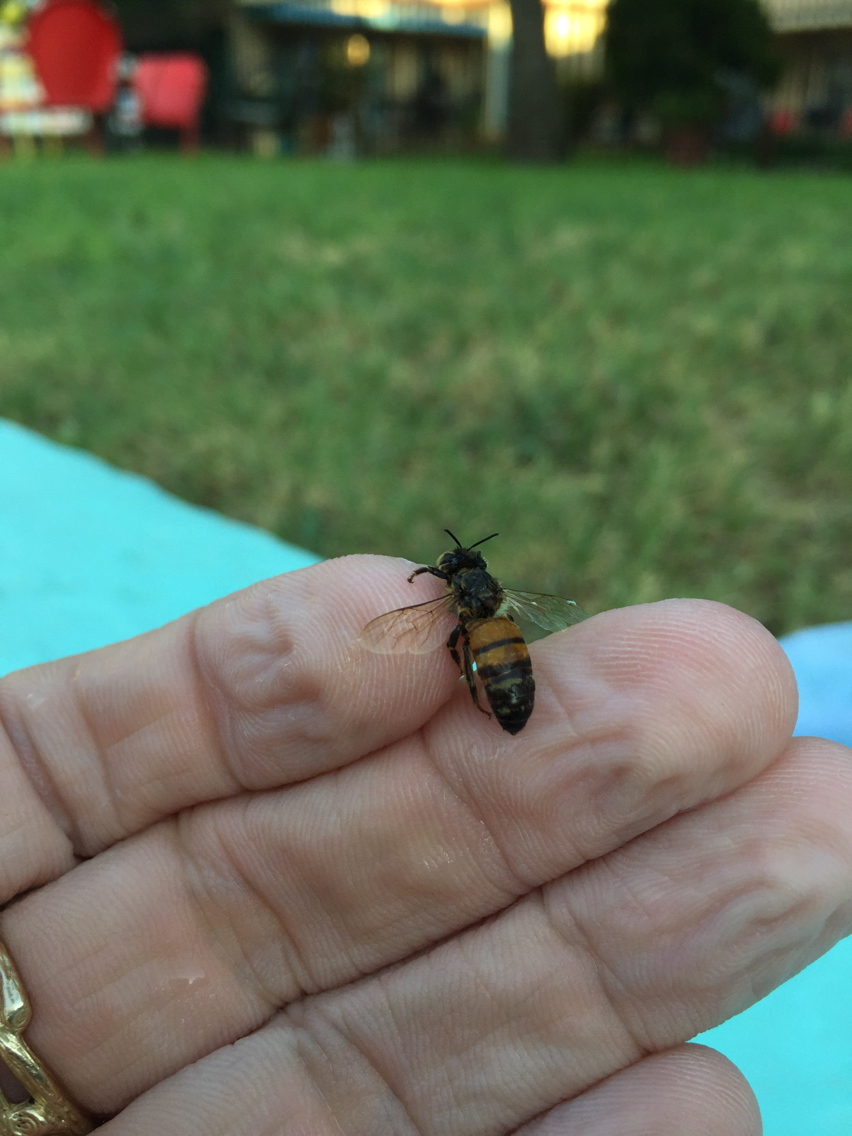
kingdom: Animalia
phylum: Arthropoda
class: Insecta
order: Hymenoptera
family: Apidae
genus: Apis
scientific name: Apis mellifera
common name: Honey bee
